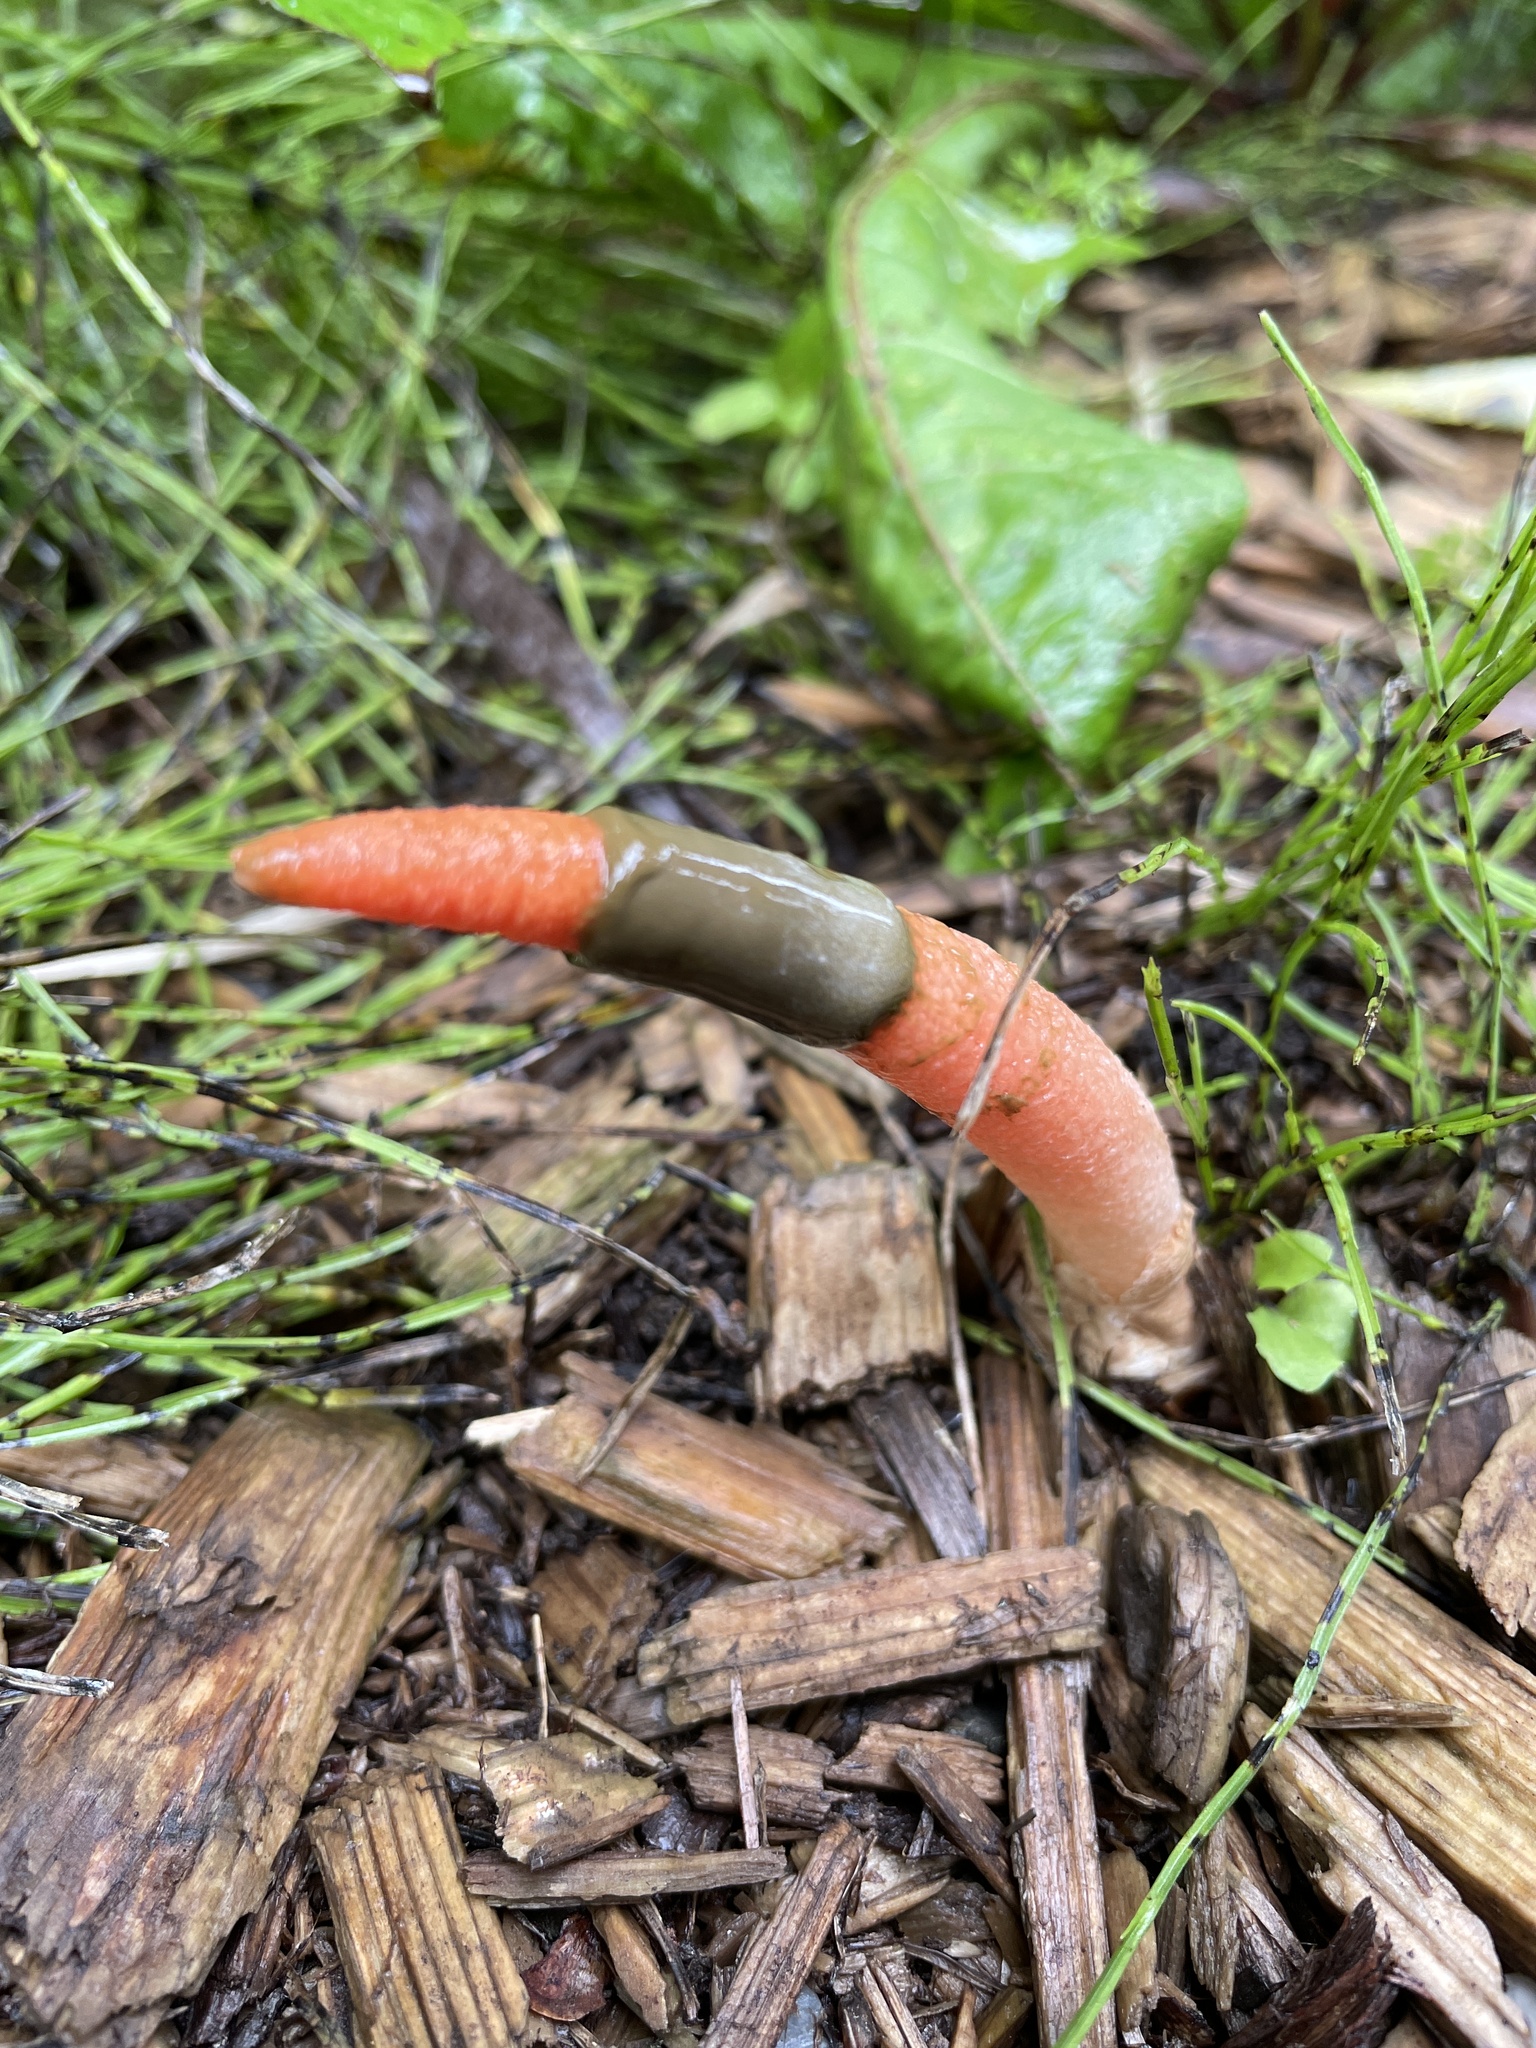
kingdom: Fungi
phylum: Basidiomycota
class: Agaricomycetes
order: Phallales
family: Phallaceae
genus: Mutinus
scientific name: Mutinus elegans
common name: Devil's dipstick
